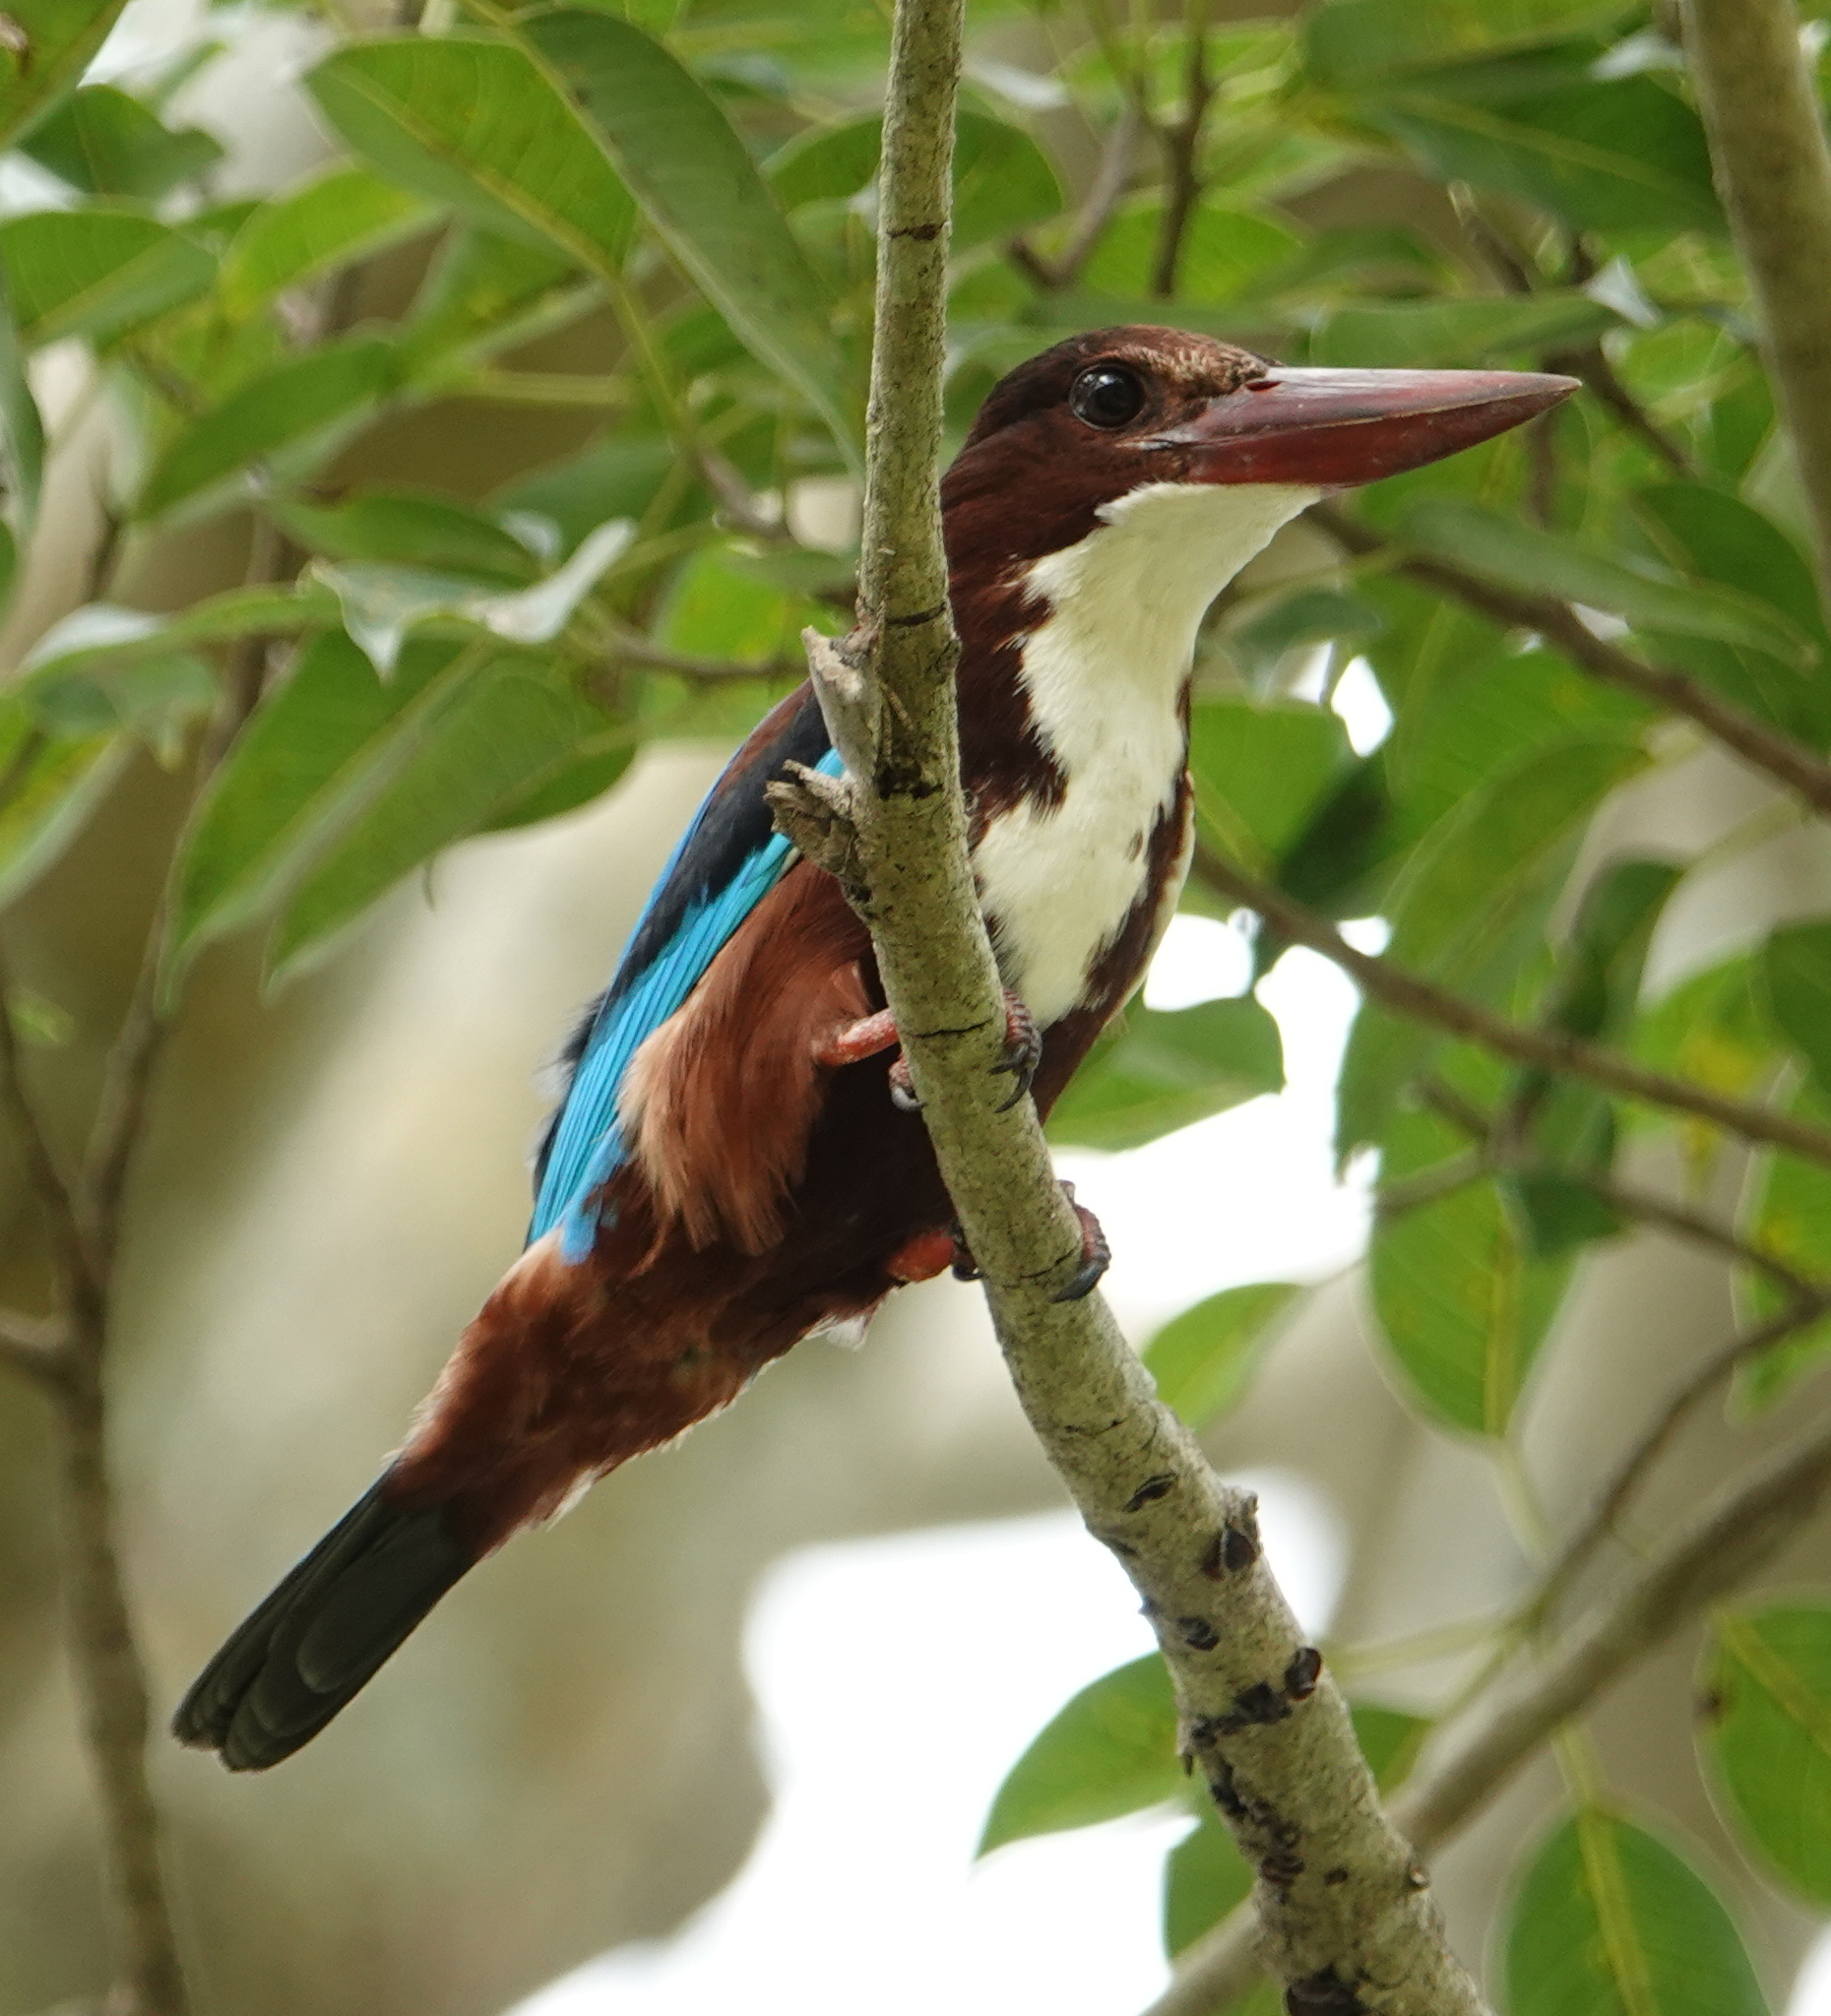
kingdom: Animalia
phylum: Chordata
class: Aves
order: Coraciiformes
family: Alcedinidae
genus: Halcyon
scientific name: Halcyon smyrnensis
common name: White-throated kingfisher
